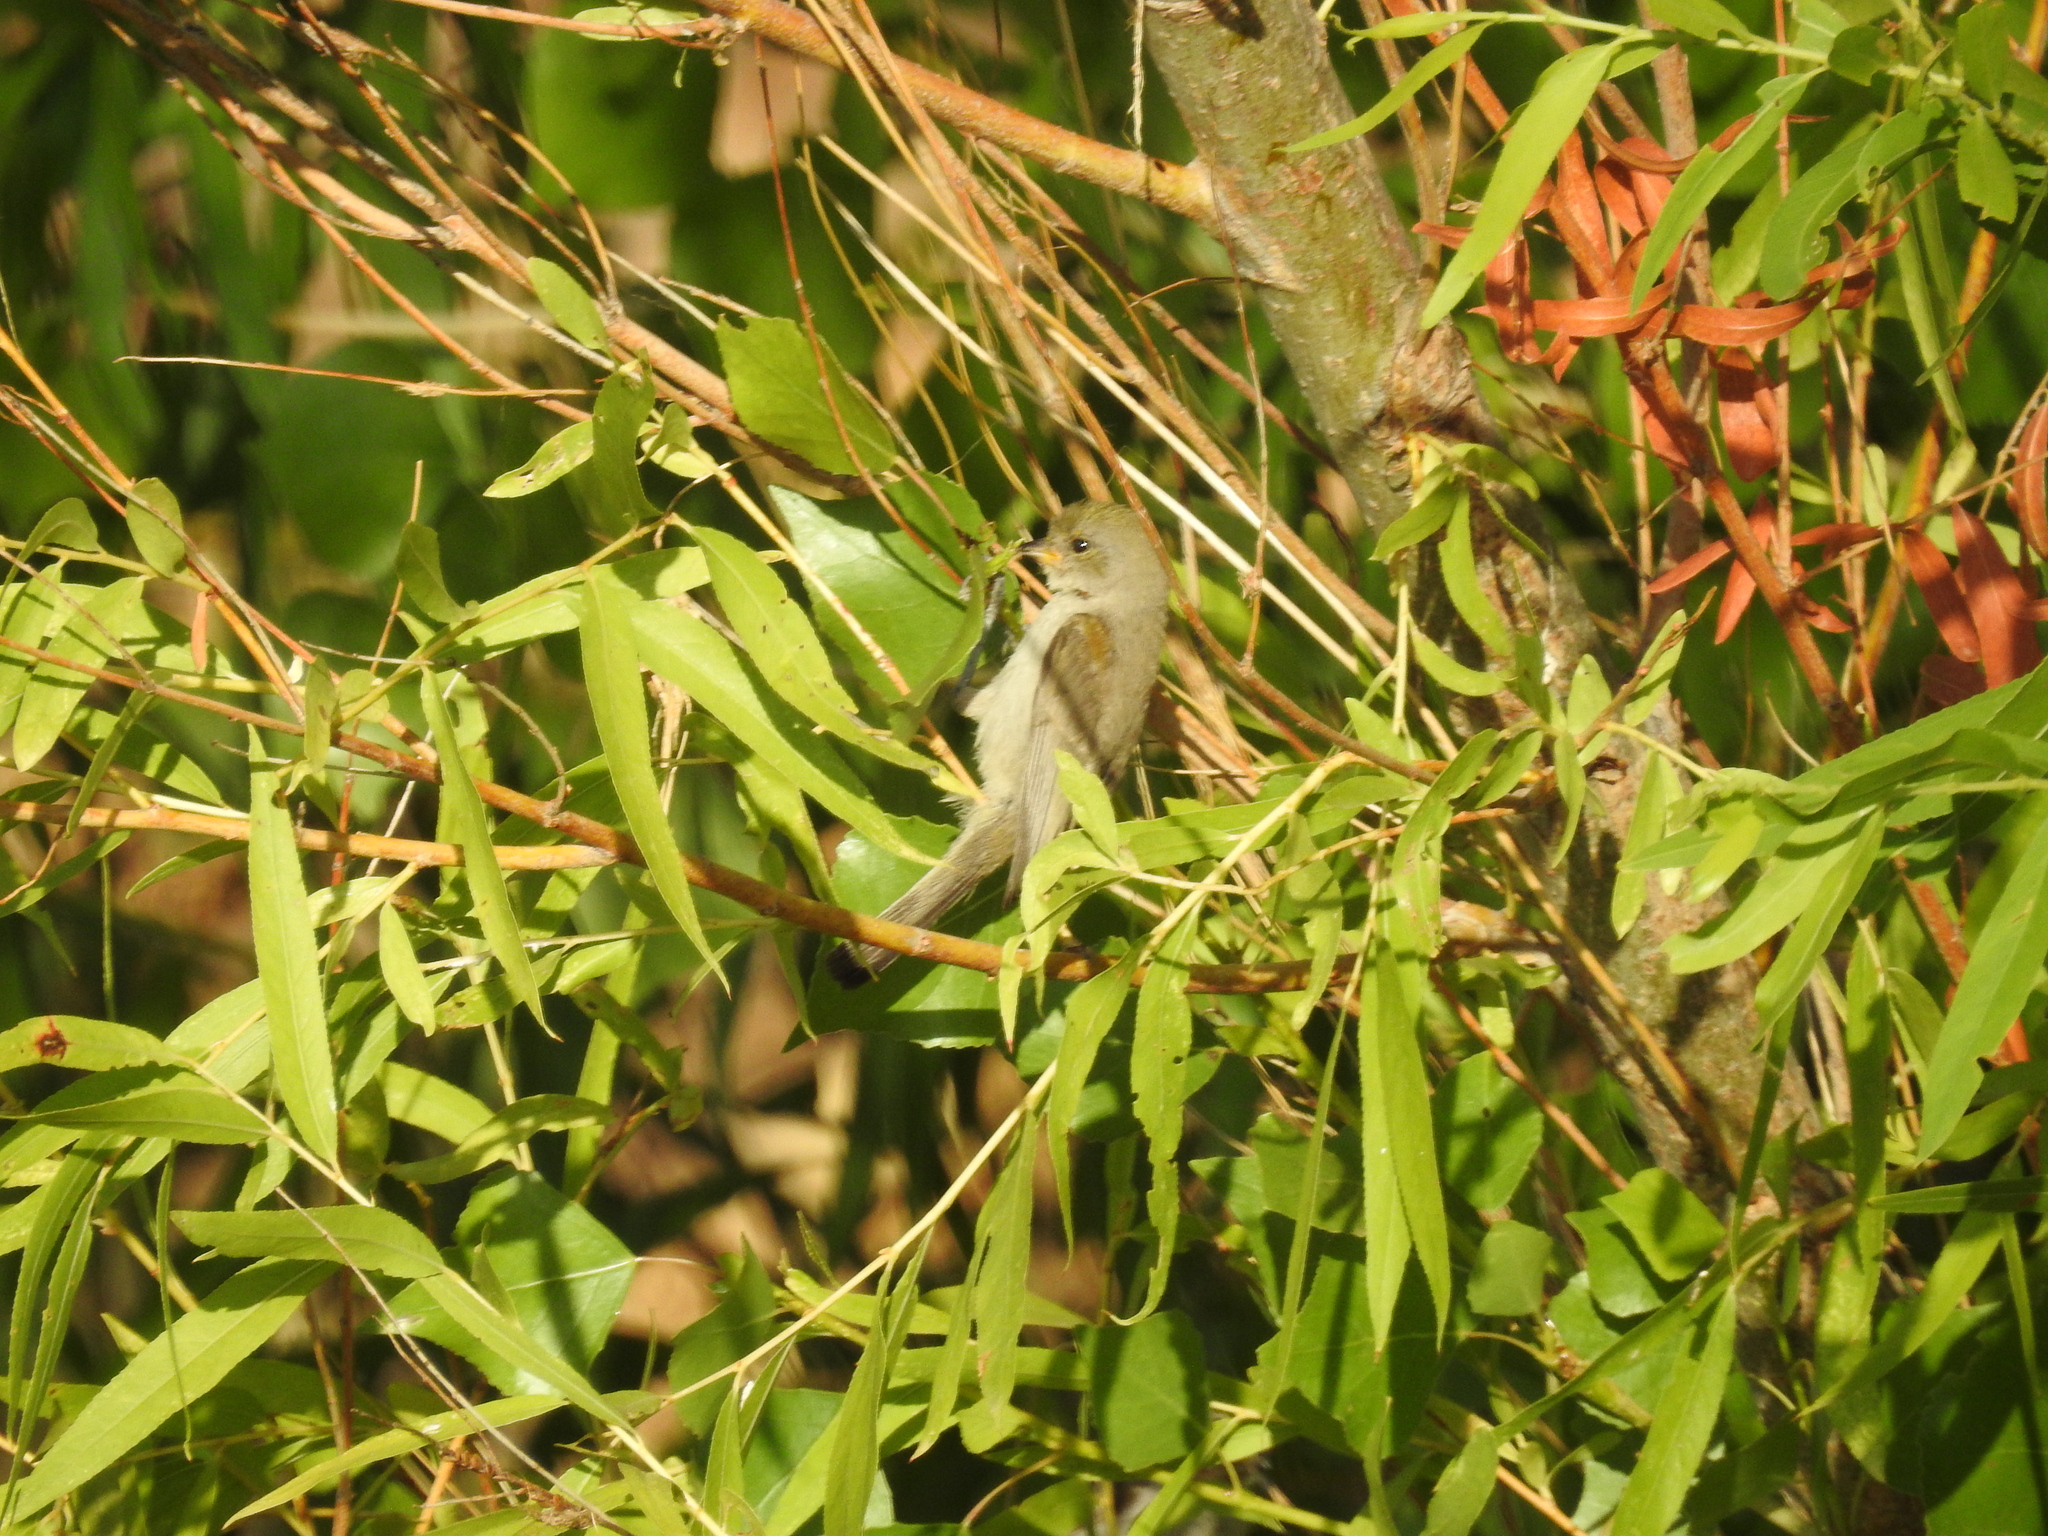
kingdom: Animalia
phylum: Chordata
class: Aves
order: Passeriformes
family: Remizidae
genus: Auriparus
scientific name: Auriparus flaviceps
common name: Verdin
